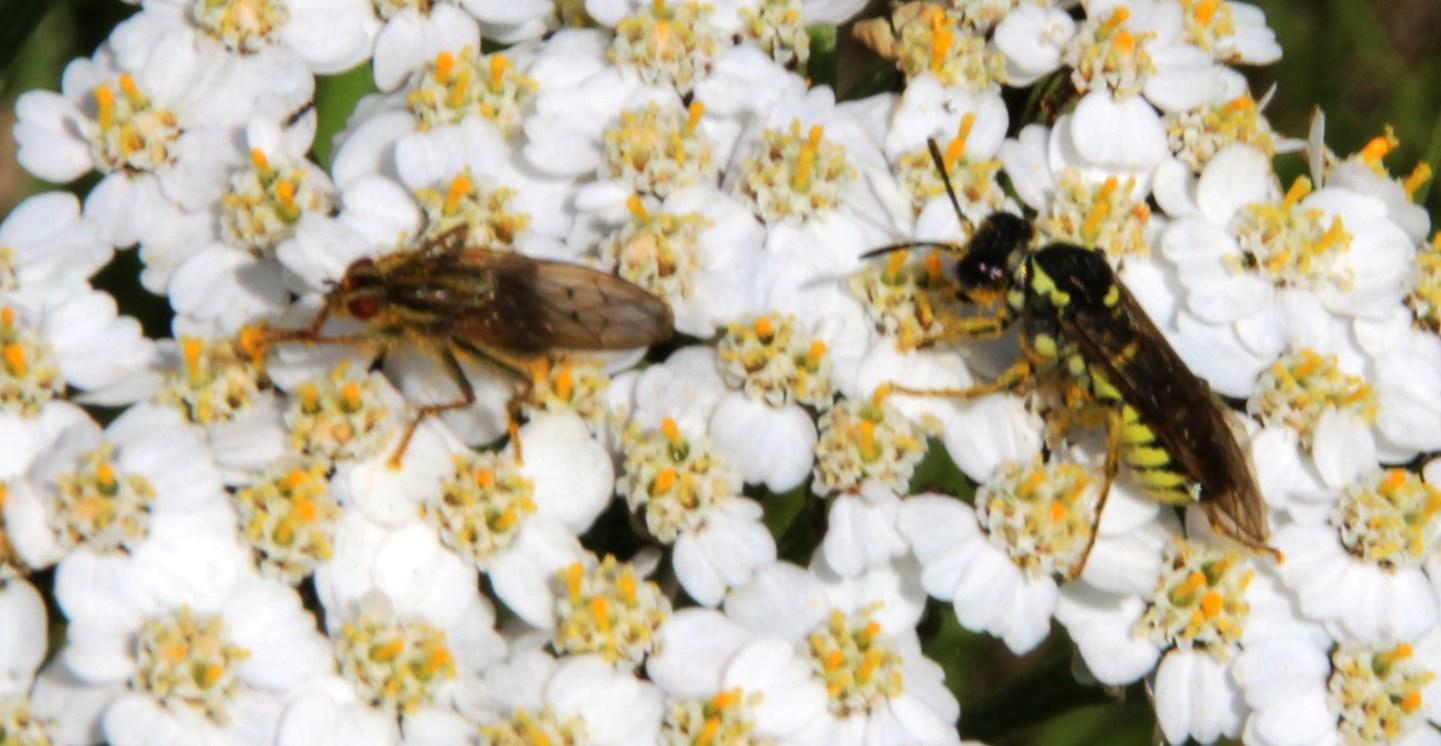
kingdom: Animalia
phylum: Arthropoda
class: Insecta
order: Diptera
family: Scathophagidae
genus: Scathophaga
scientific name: Scathophaga stercoraria
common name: Yellow dung fly
